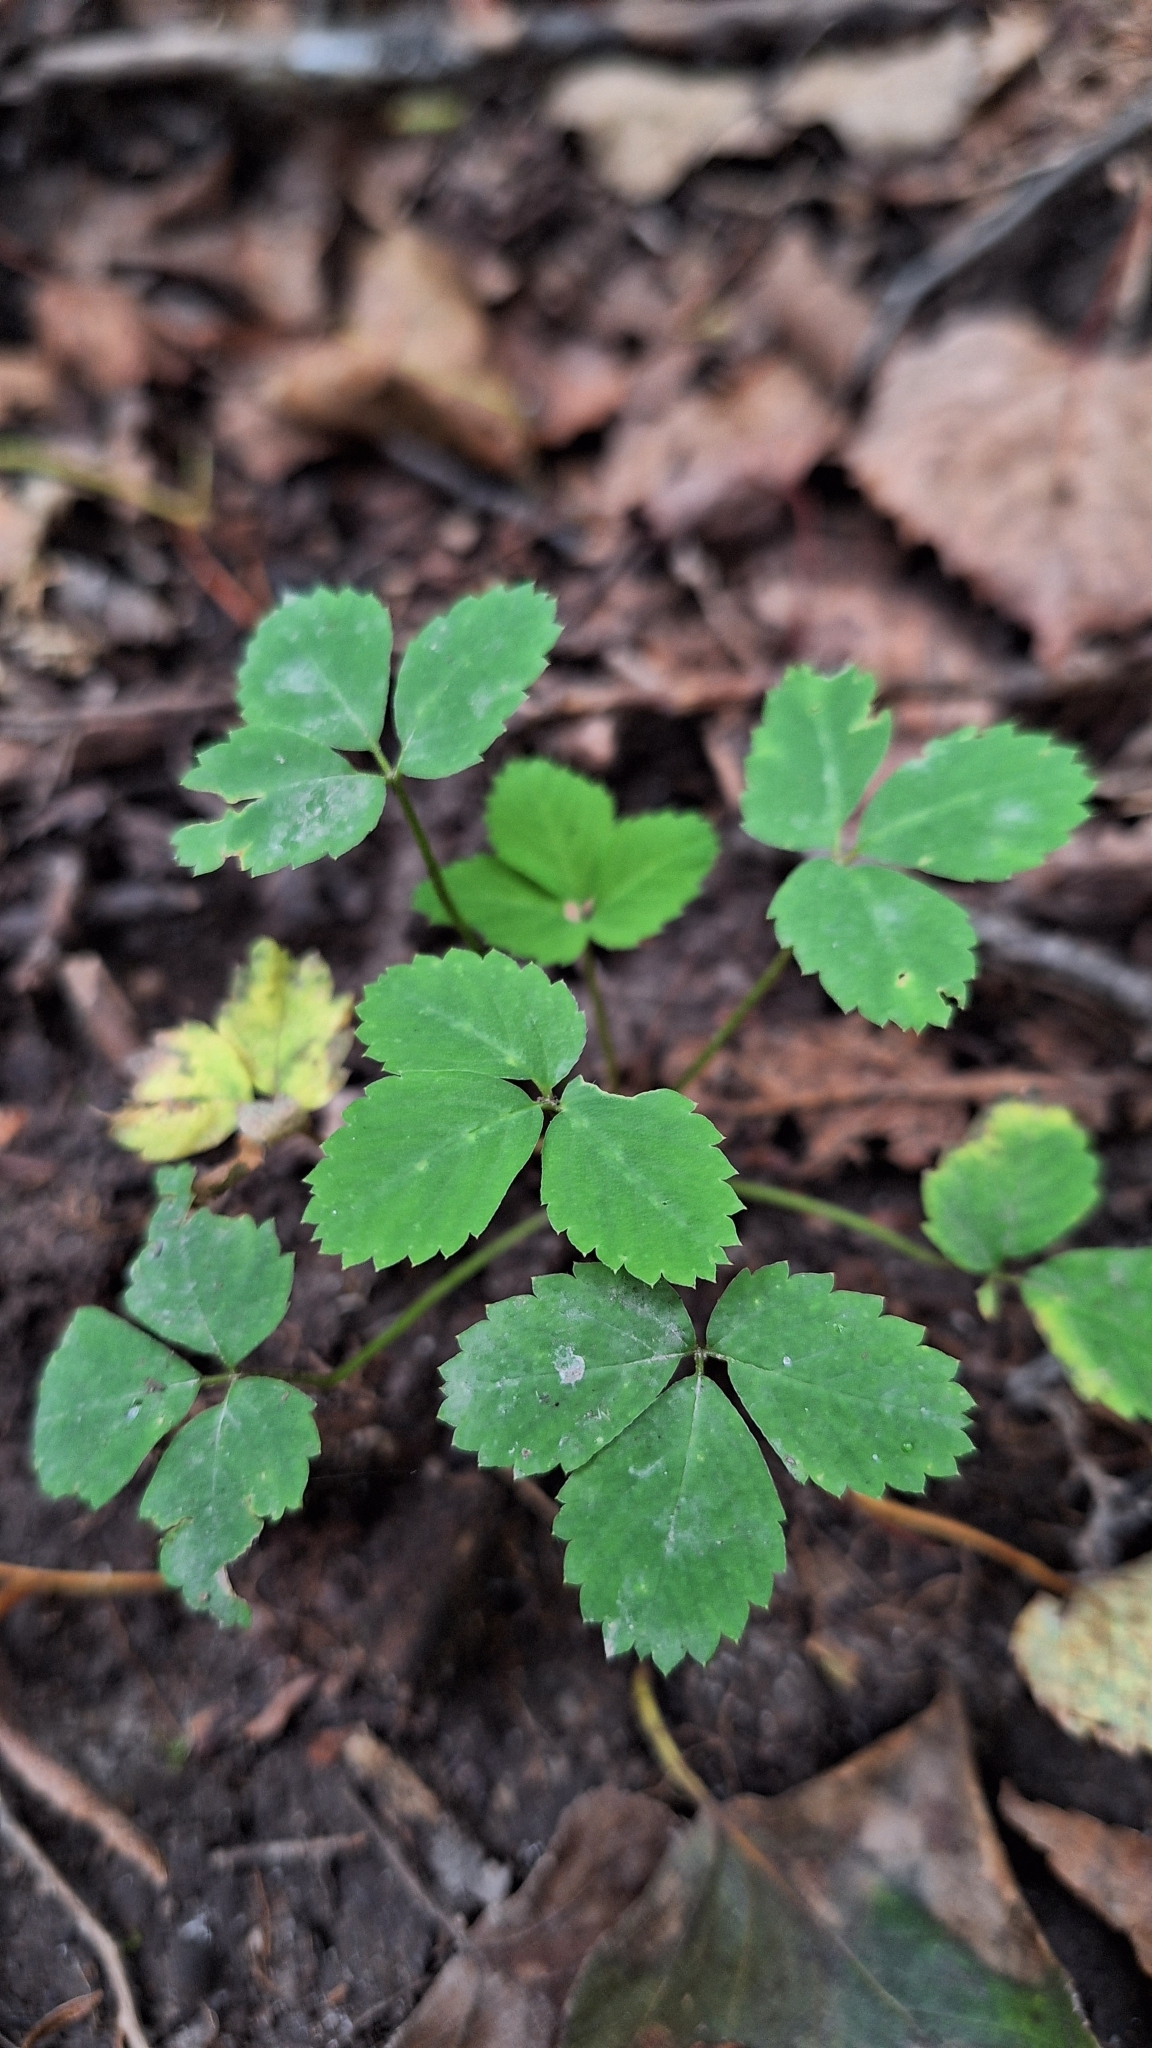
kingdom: Plantae
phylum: Tracheophyta
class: Magnoliopsida
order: Rosales
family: Rosaceae
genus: Potentilla
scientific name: Potentilla centigrana
